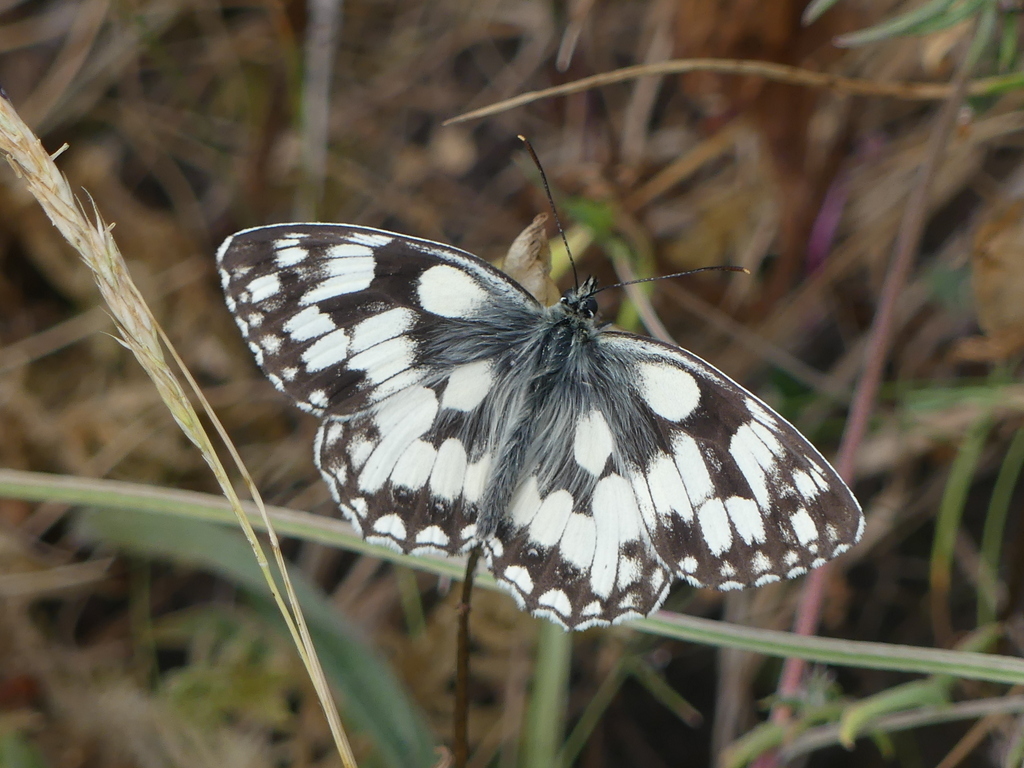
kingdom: Animalia
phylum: Arthropoda
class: Insecta
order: Lepidoptera
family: Nymphalidae
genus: Melanargia
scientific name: Melanargia galathea
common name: Marbled white
